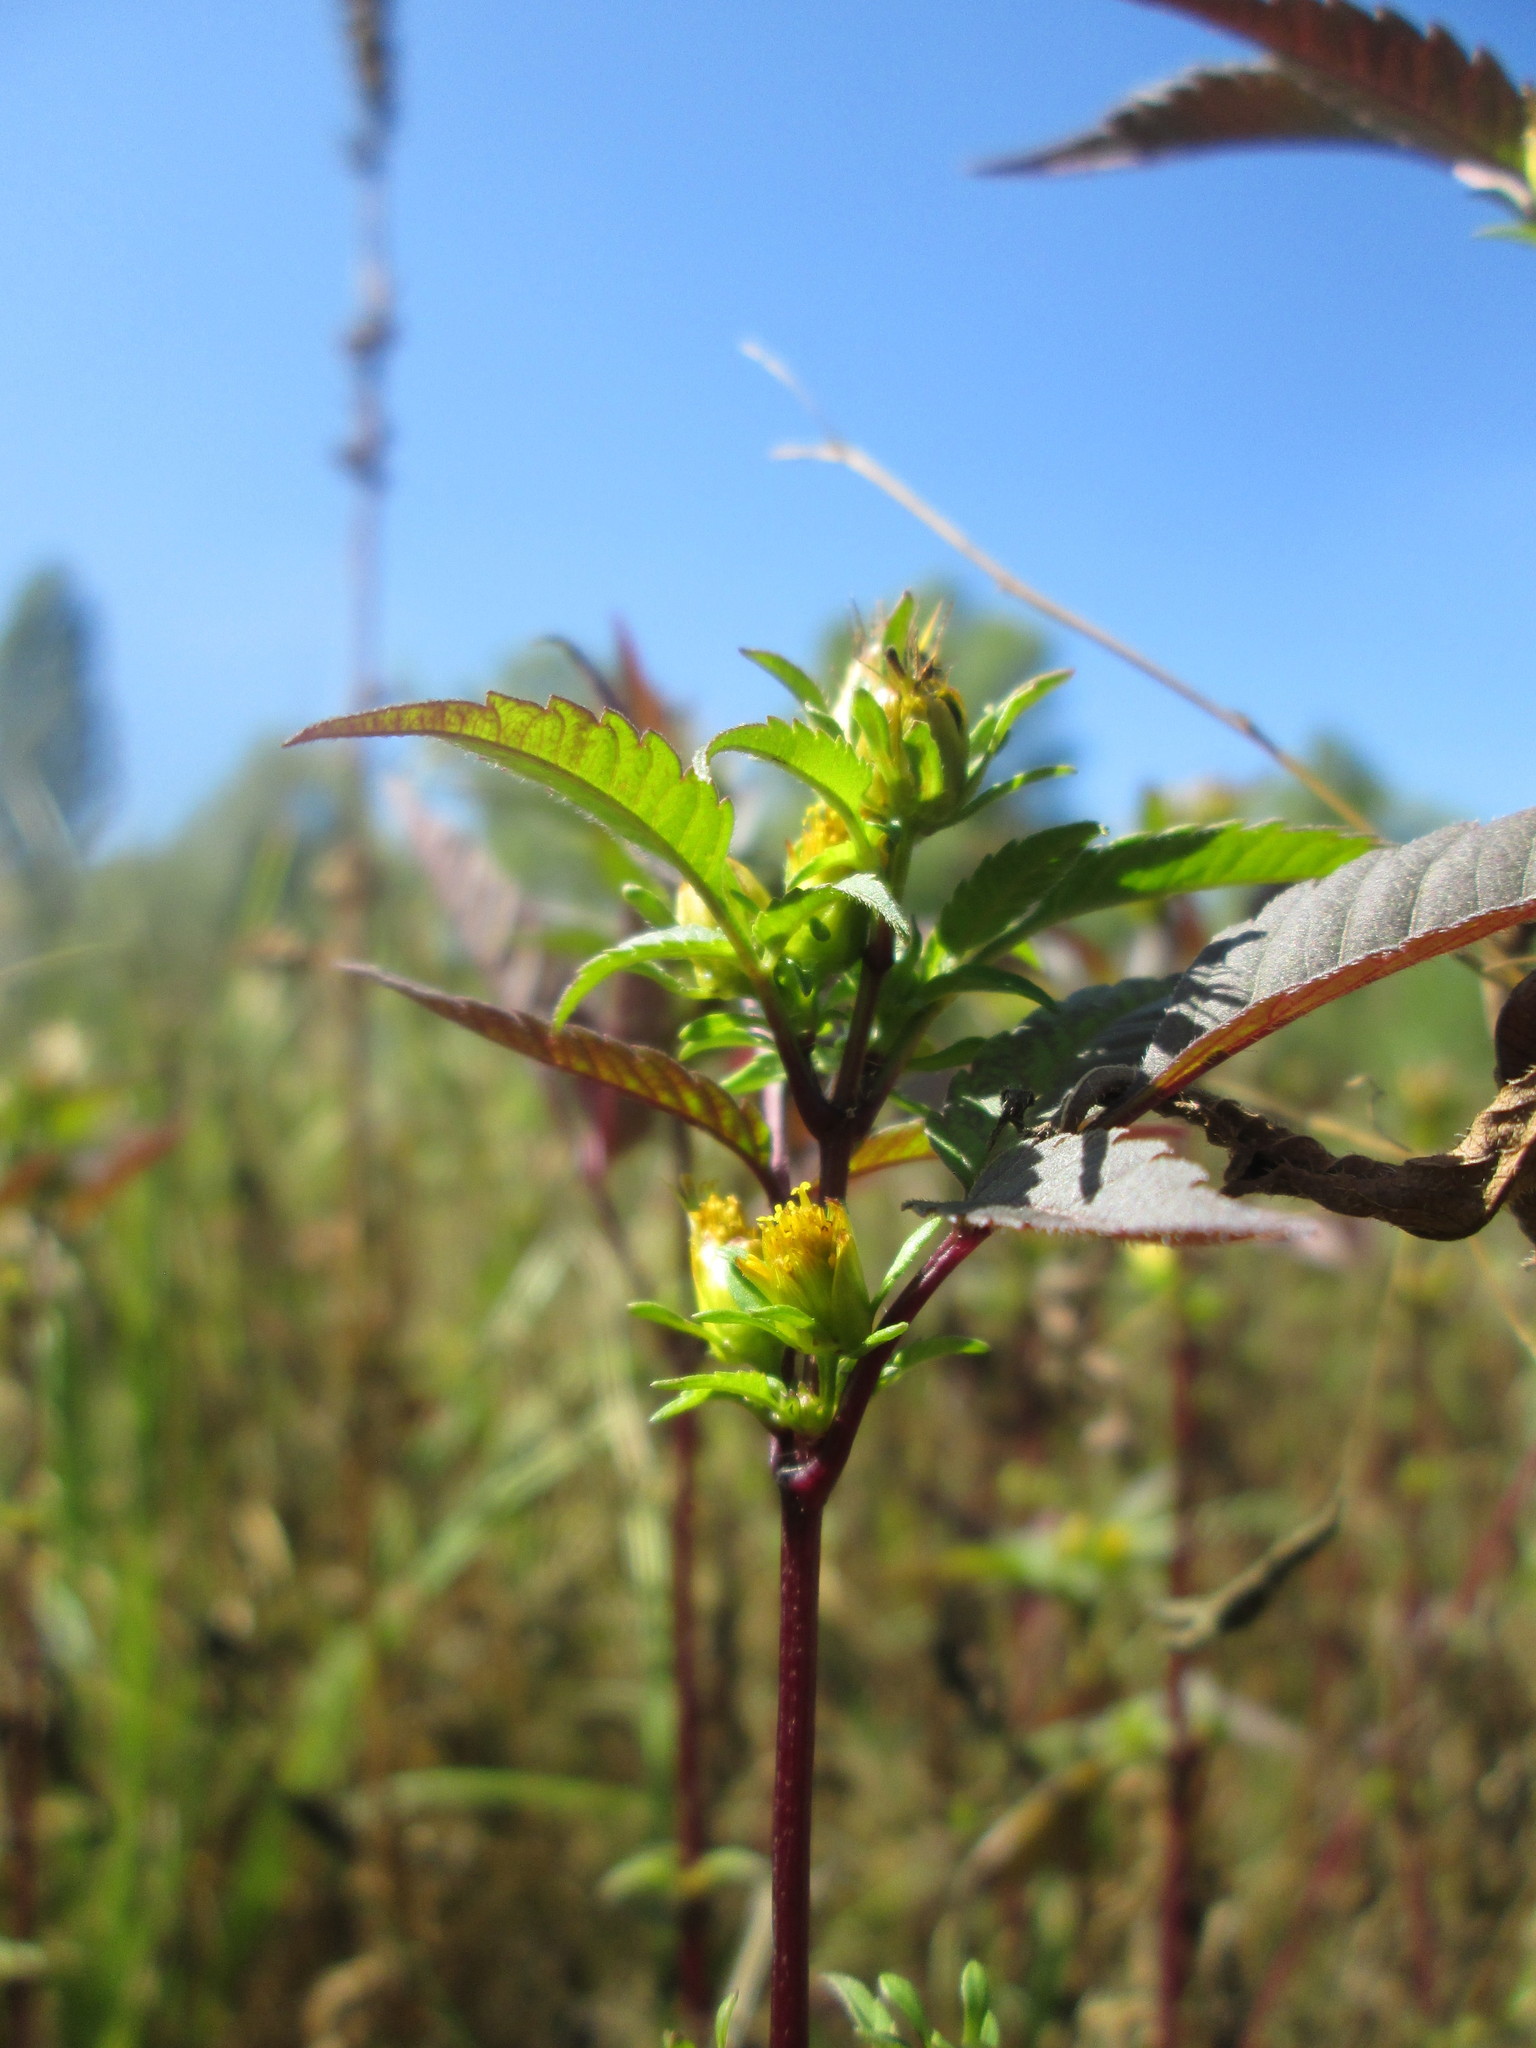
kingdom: Plantae
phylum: Tracheophyta
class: Magnoliopsida
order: Asterales
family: Asteraceae
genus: Bidens
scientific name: Bidens frondosa
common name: Beggarticks
